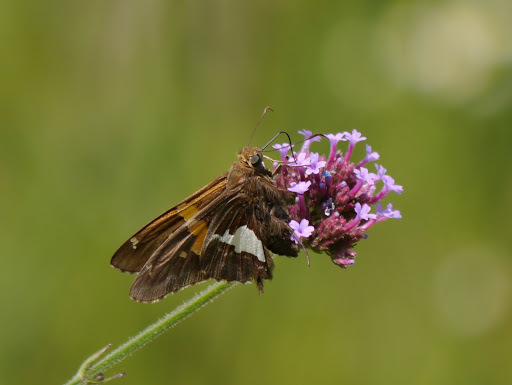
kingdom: Animalia
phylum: Arthropoda
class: Insecta
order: Lepidoptera
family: Hesperiidae
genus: Epargyreus
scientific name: Epargyreus clarus
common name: Silver-spotted skipper
